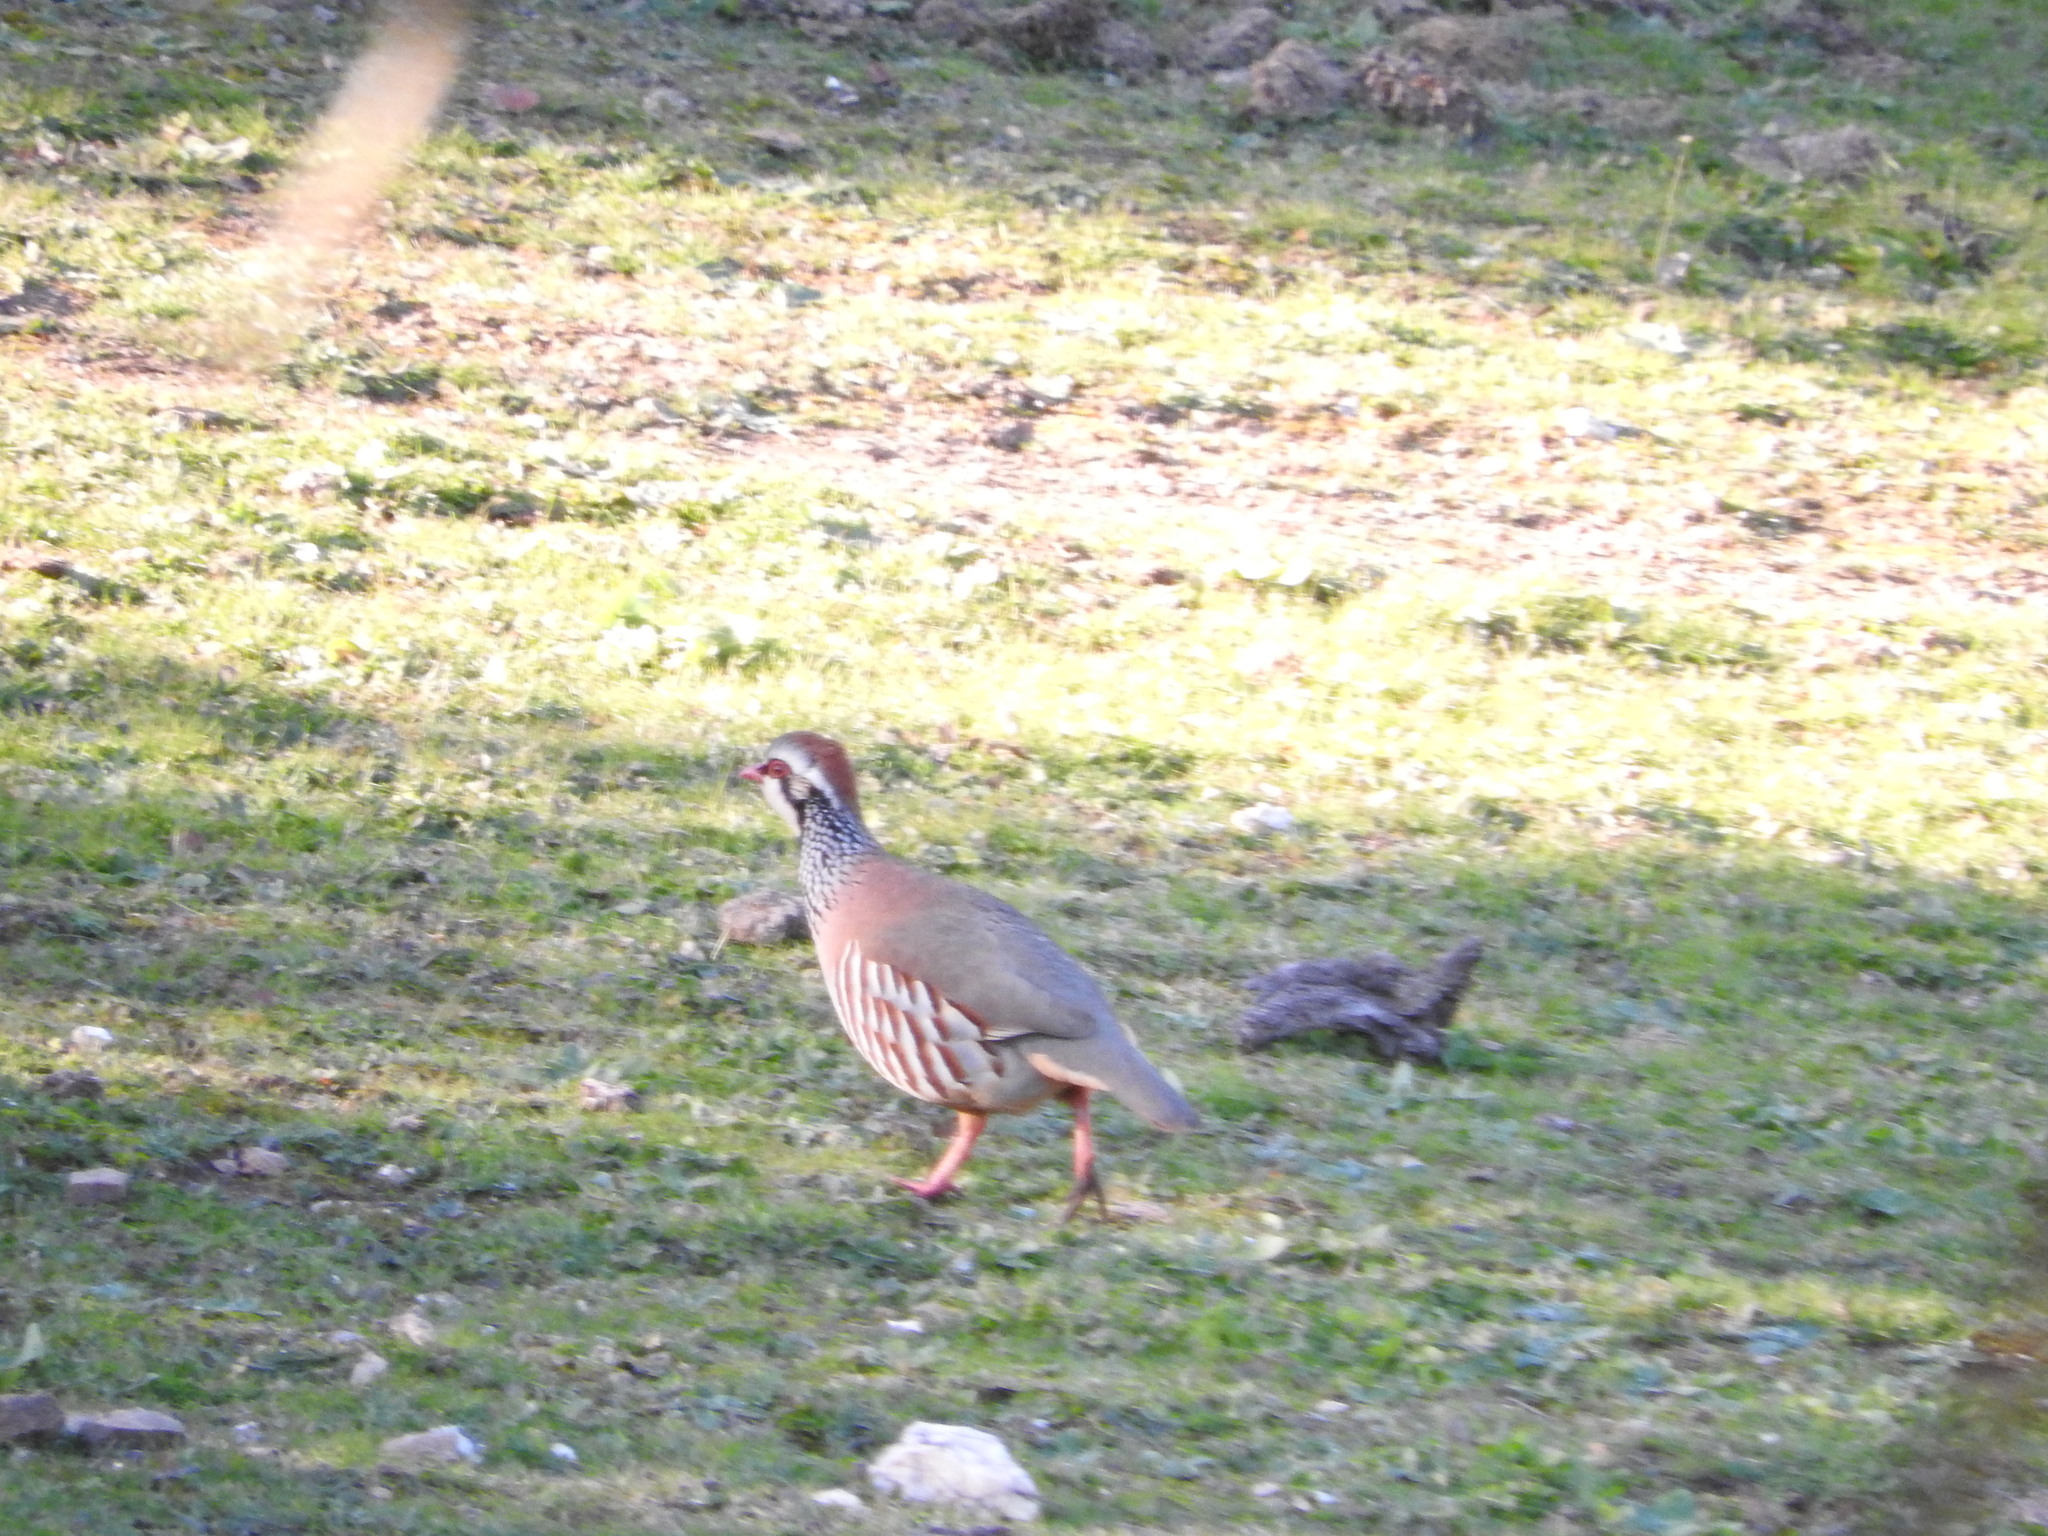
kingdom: Animalia
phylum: Chordata
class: Aves
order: Galliformes
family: Phasianidae
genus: Alectoris
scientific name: Alectoris rufa
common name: Red-legged partridge
